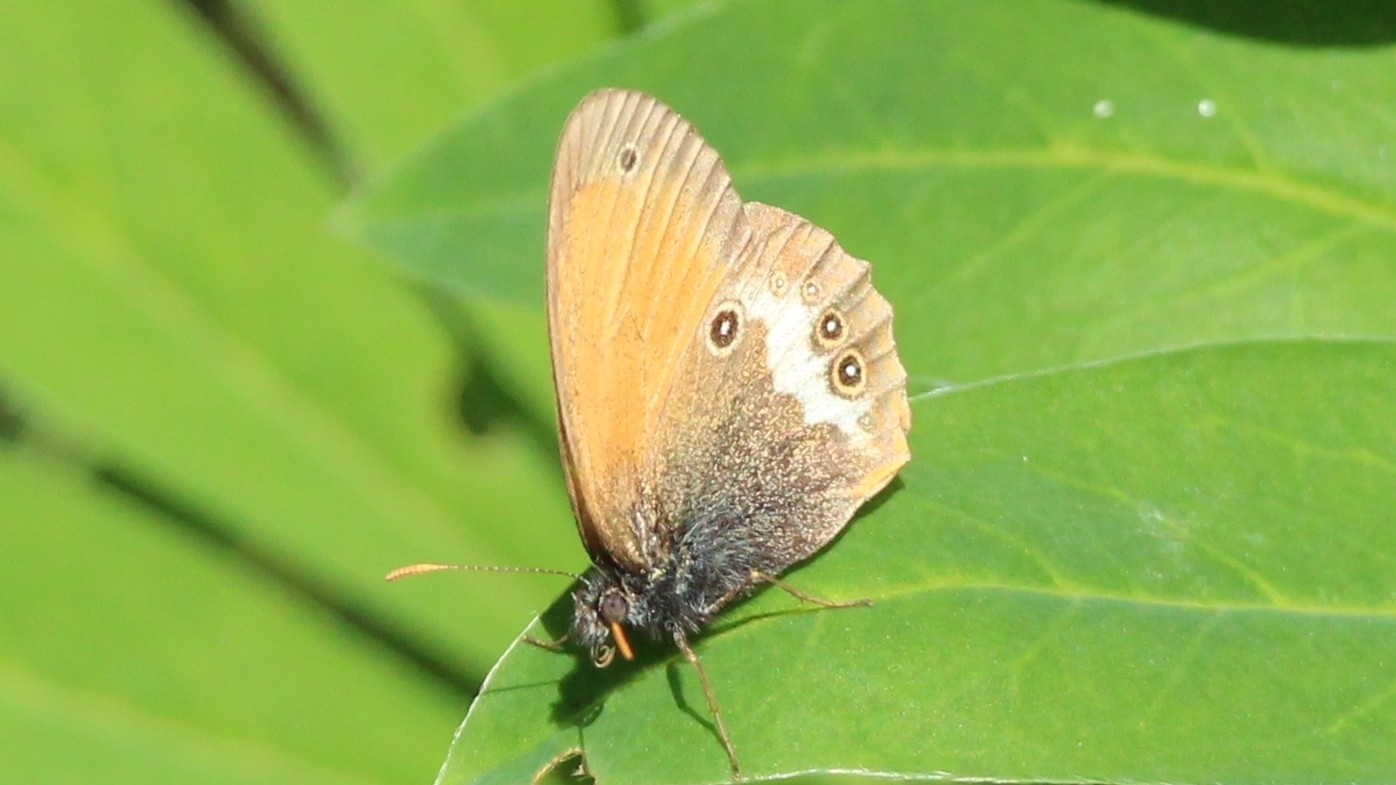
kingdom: Animalia
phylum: Arthropoda
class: Insecta
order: Lepidoptera
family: Nymphalidae
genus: Coenonympha
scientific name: Coenonympha arcania
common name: Pearly heath
